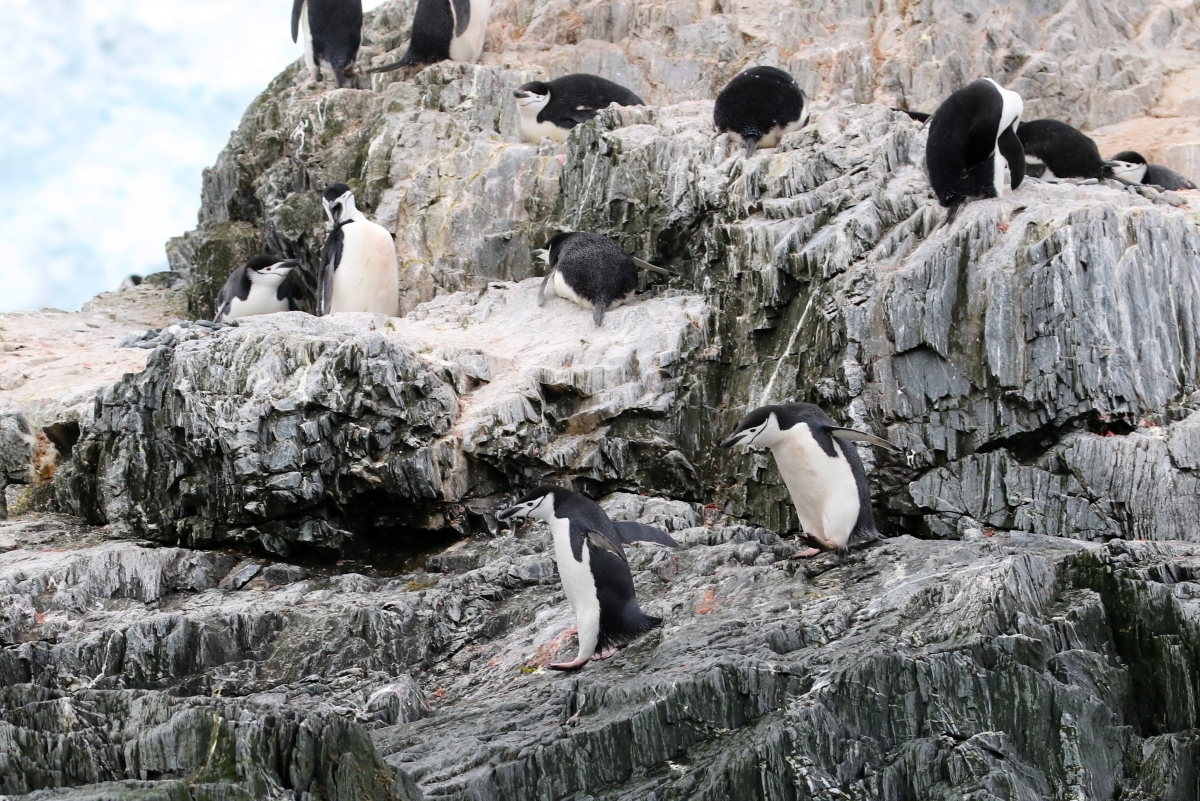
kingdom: Animalia
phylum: Chordata
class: Aves
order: Sphenisciformes
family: Spheniscidae
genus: Pygoscelis
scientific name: Pygoscelis antarcticus
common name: Chinstrap penguin
